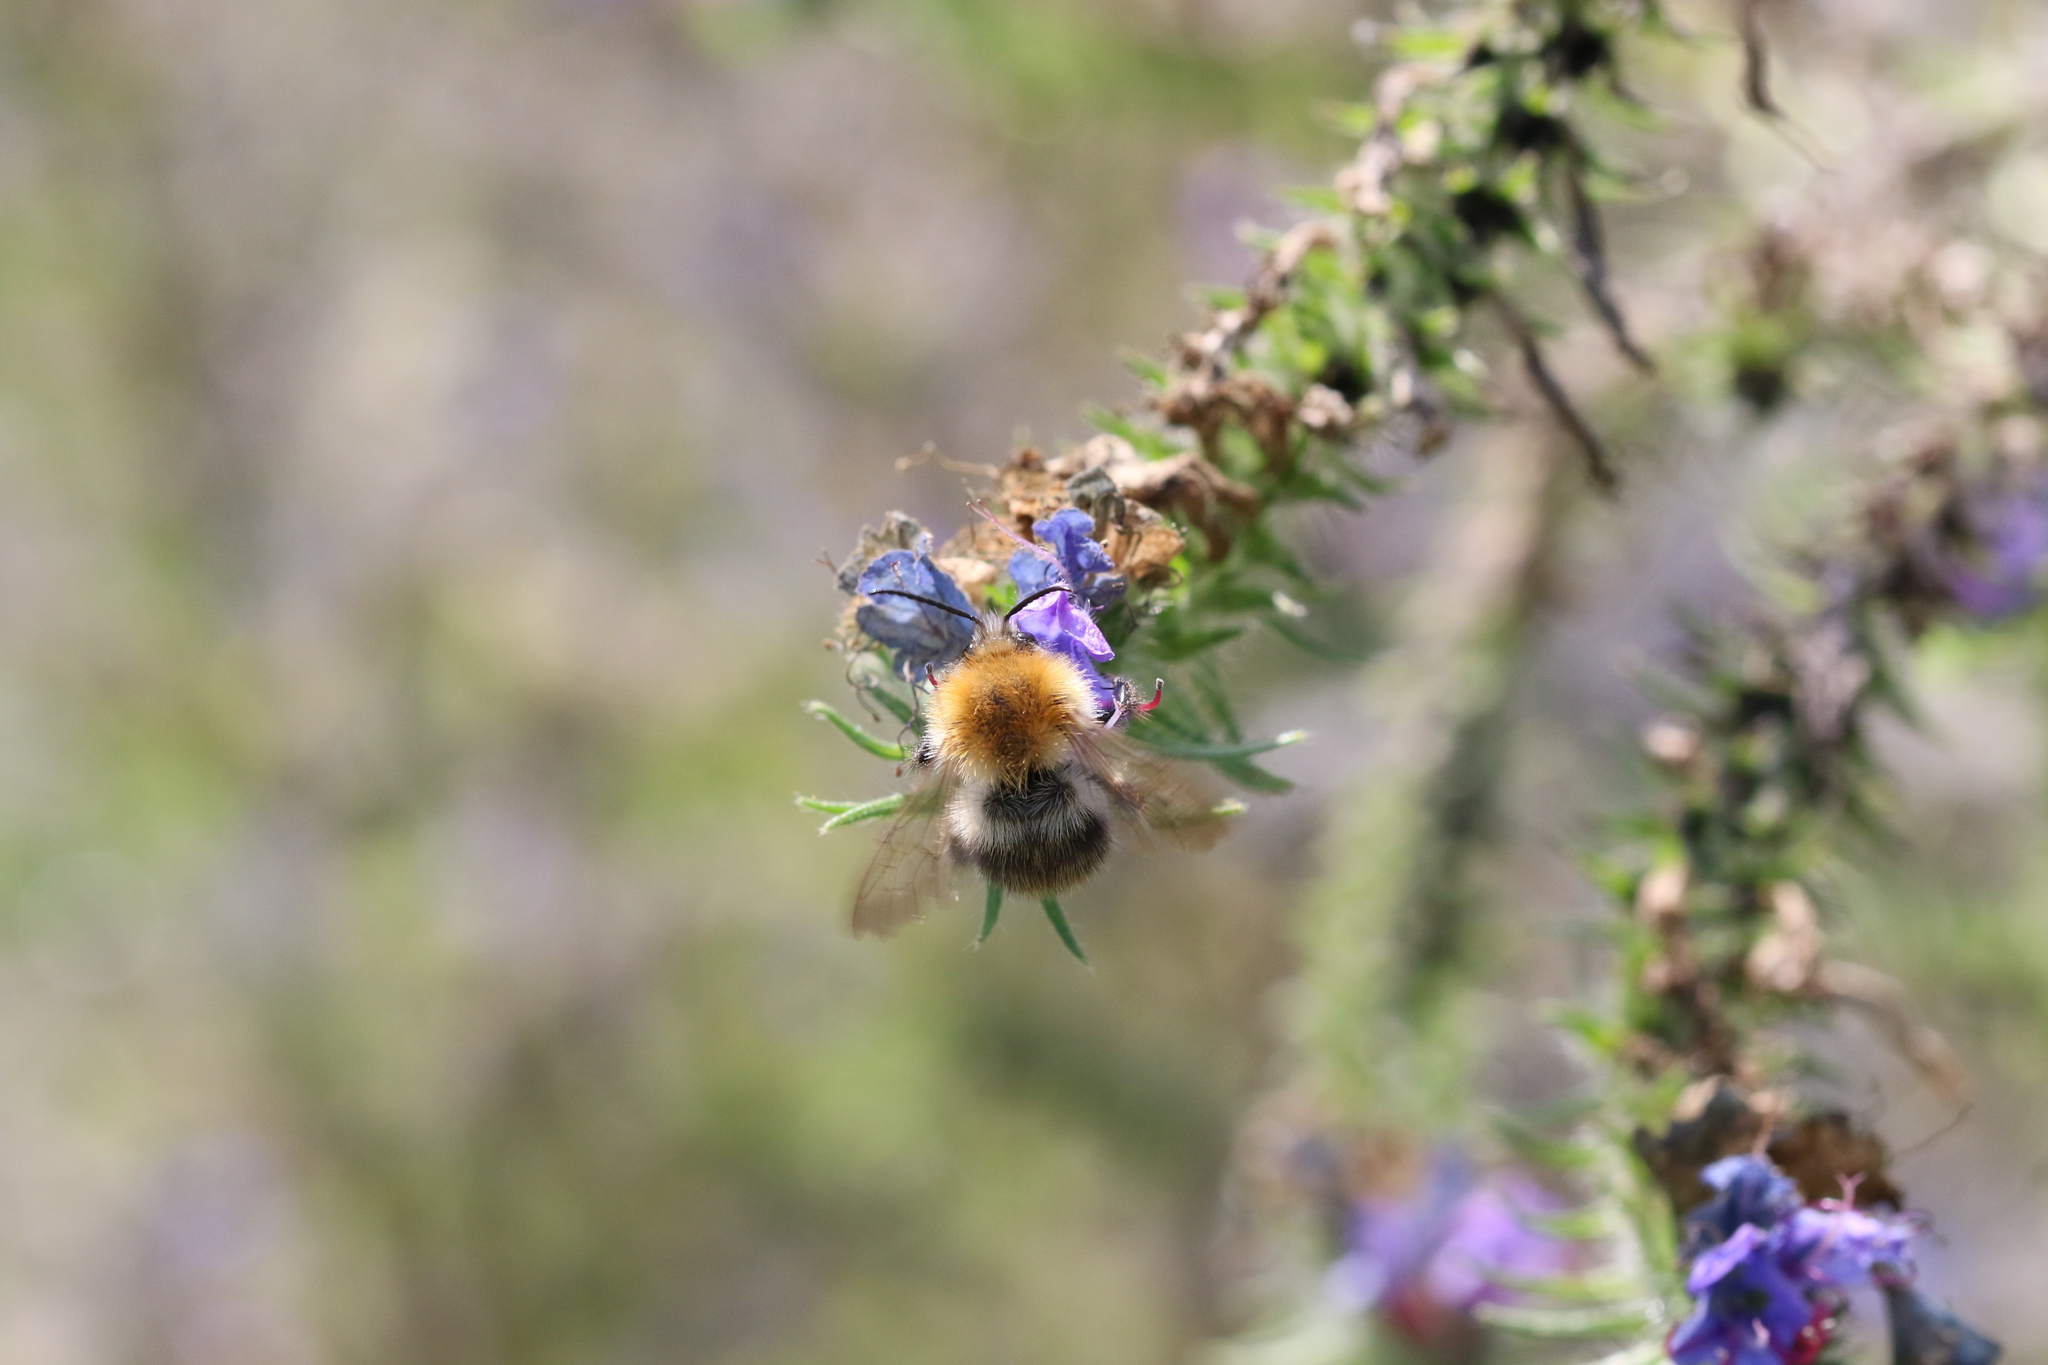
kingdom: Animalia
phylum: Arthropoda
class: Insecta
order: Hymenoptera
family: Apidae
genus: Bombus
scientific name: Bombus pascuorum
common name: Common carder bee
